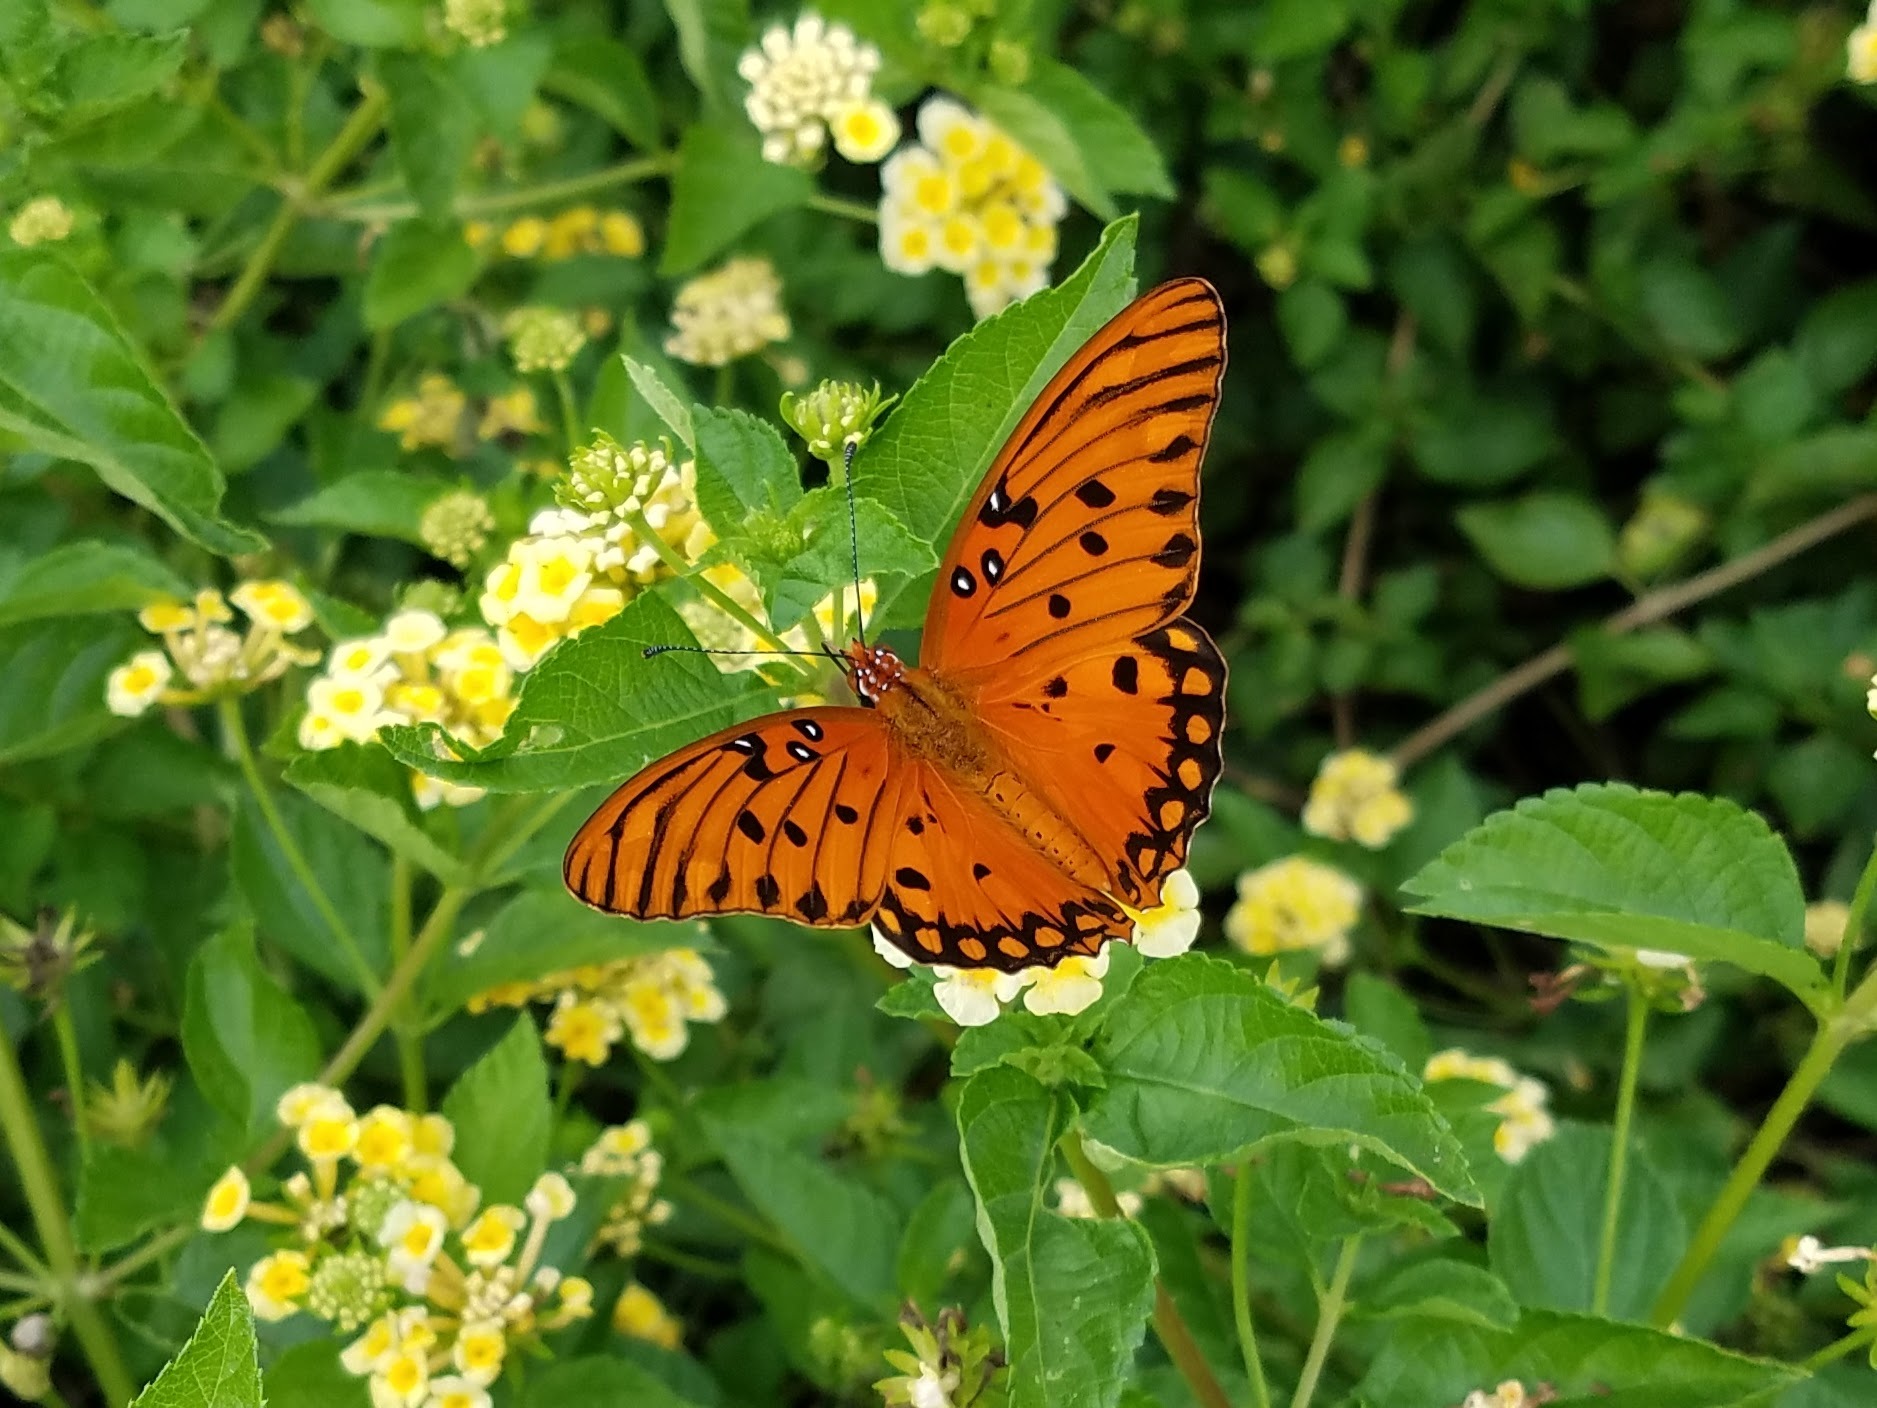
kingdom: Animalia
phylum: Arthropoda
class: Insecta
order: Lepidoptera
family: Nymphalidae
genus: Dione
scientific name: Dione vanillae
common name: Gulf fritillary
